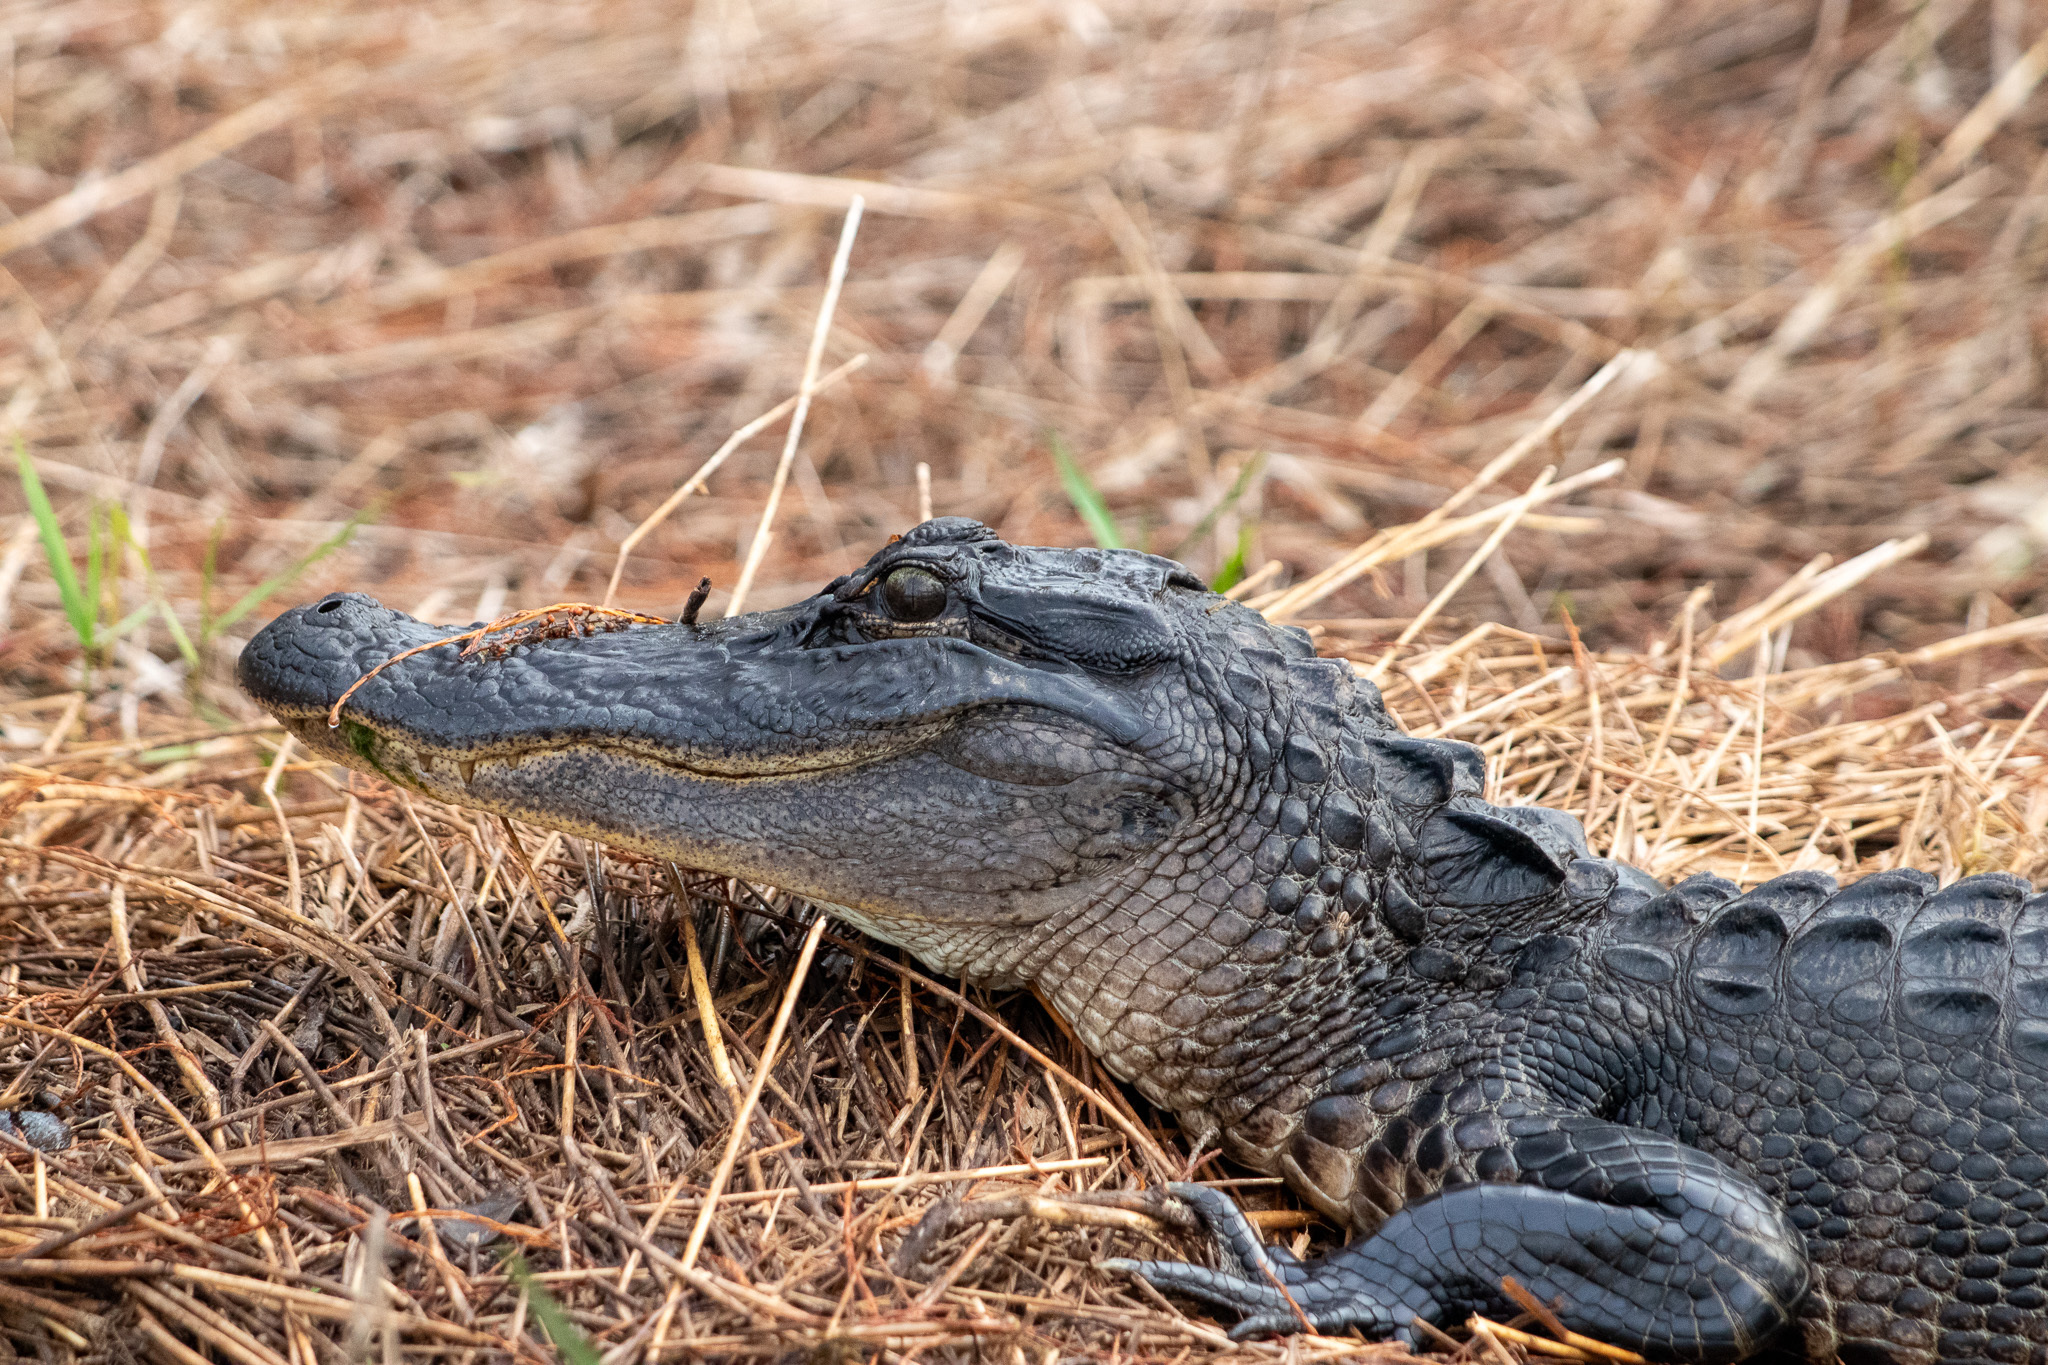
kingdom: Animalia
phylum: Chordata
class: Crocodylia
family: Alligatoridae
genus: Alligator
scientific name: Alligator mississippiensis
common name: American alligator
